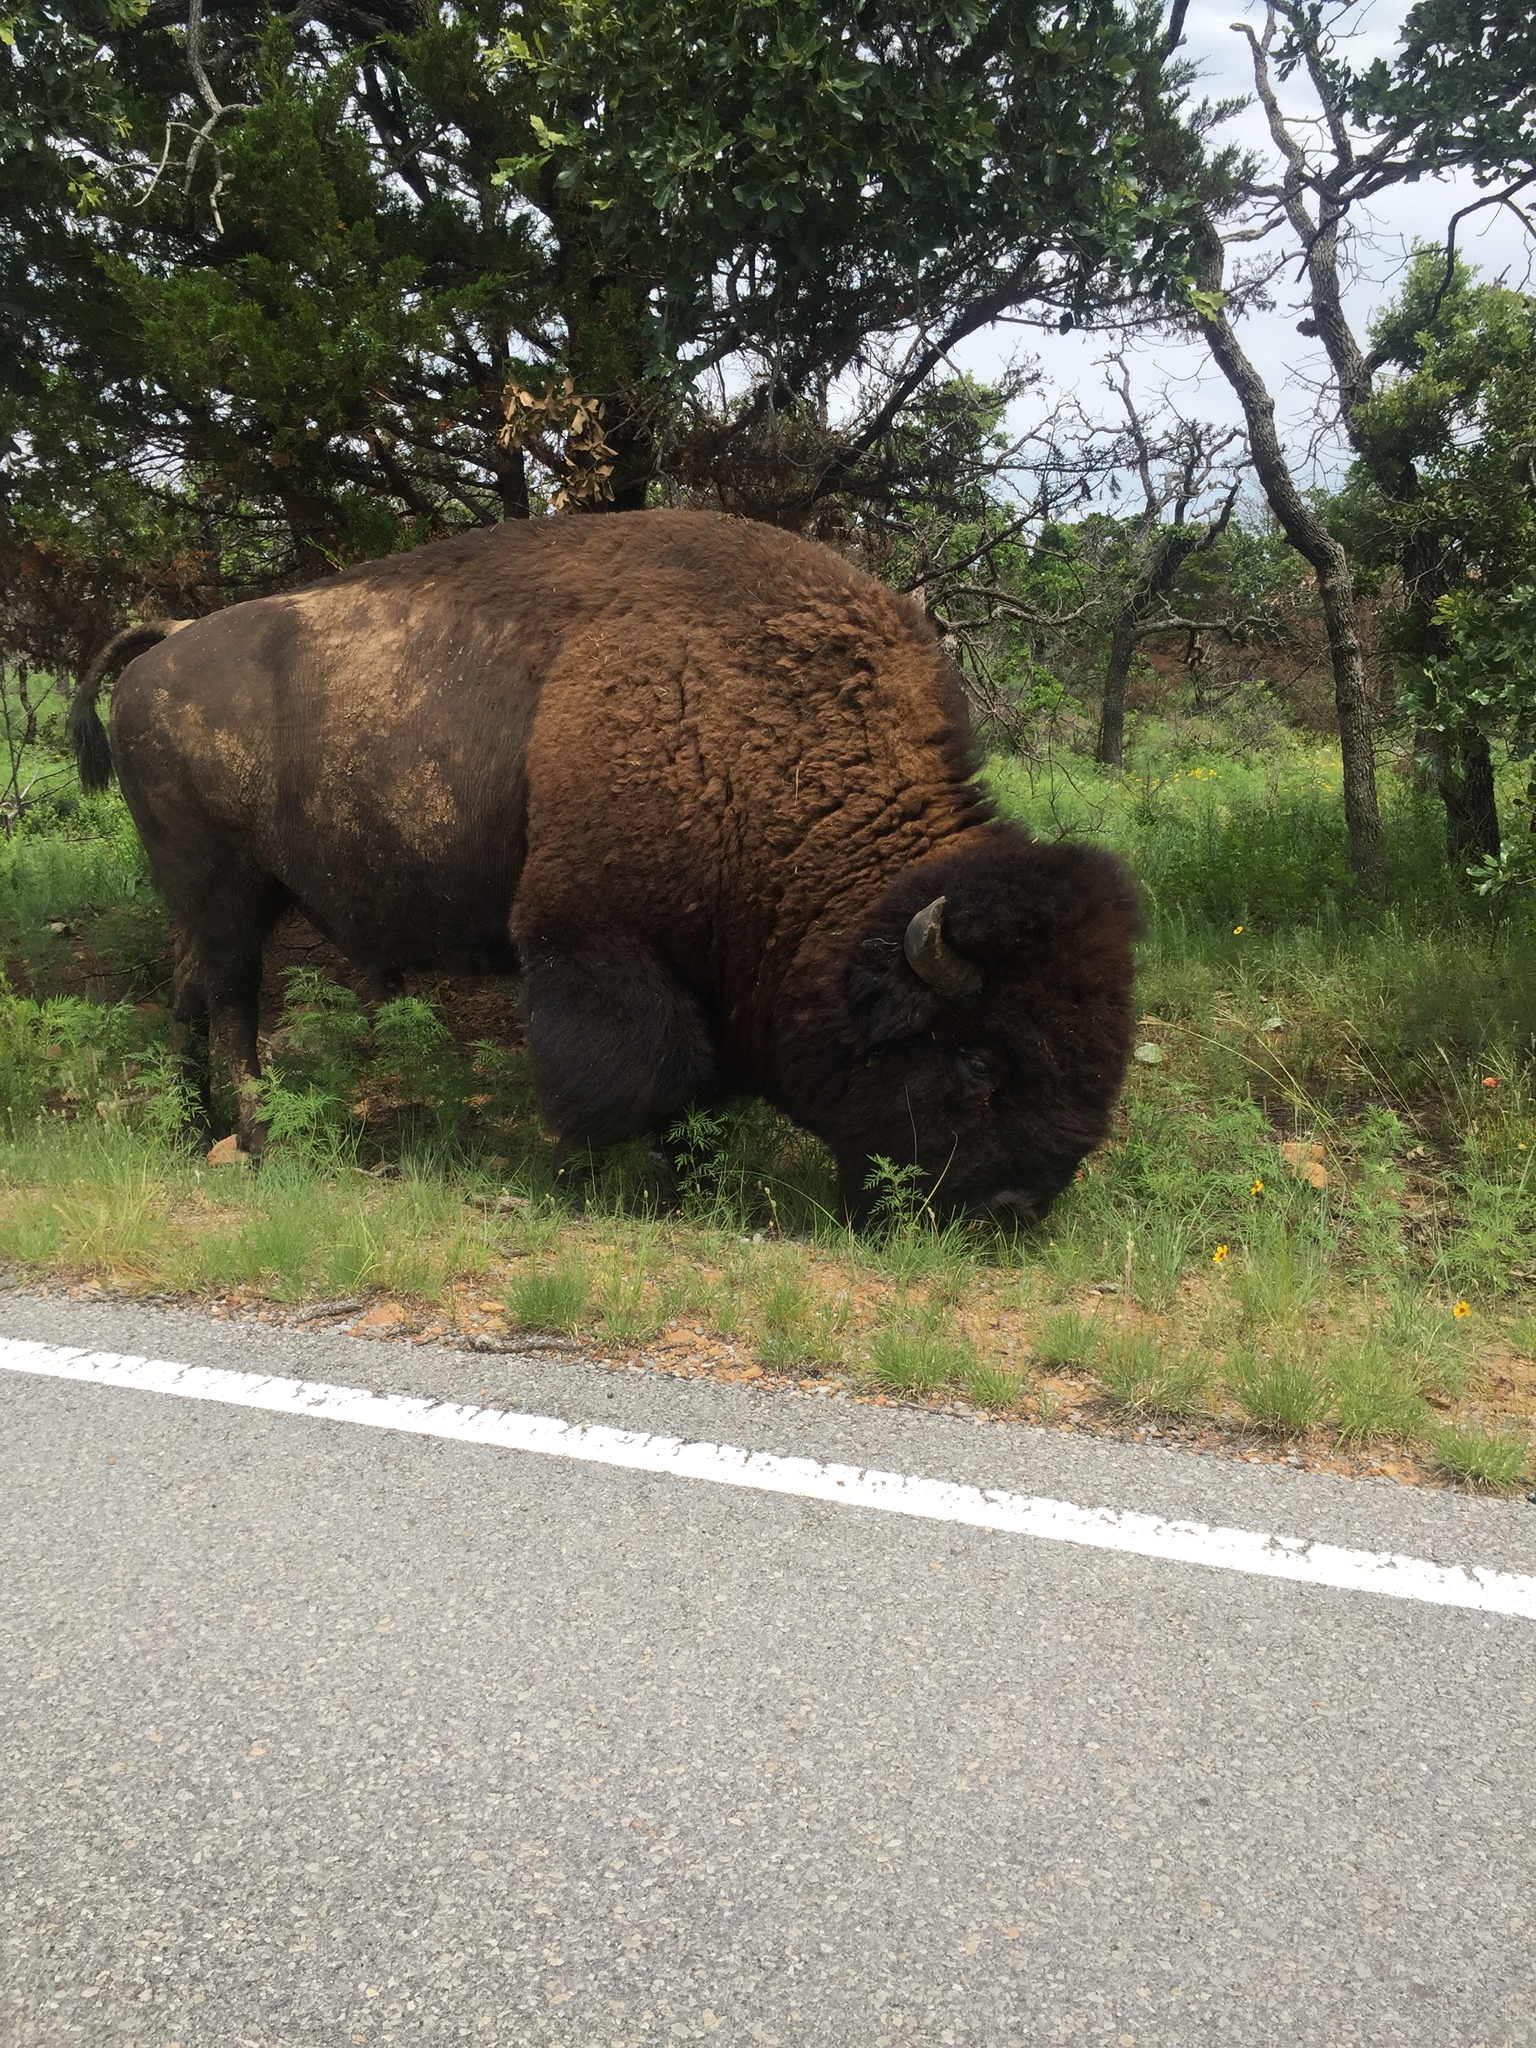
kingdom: Animalia
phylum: Chordata
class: Mammalia
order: Artiodactyla
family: Bovidae
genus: Bison
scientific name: Bison bison
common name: American bison
